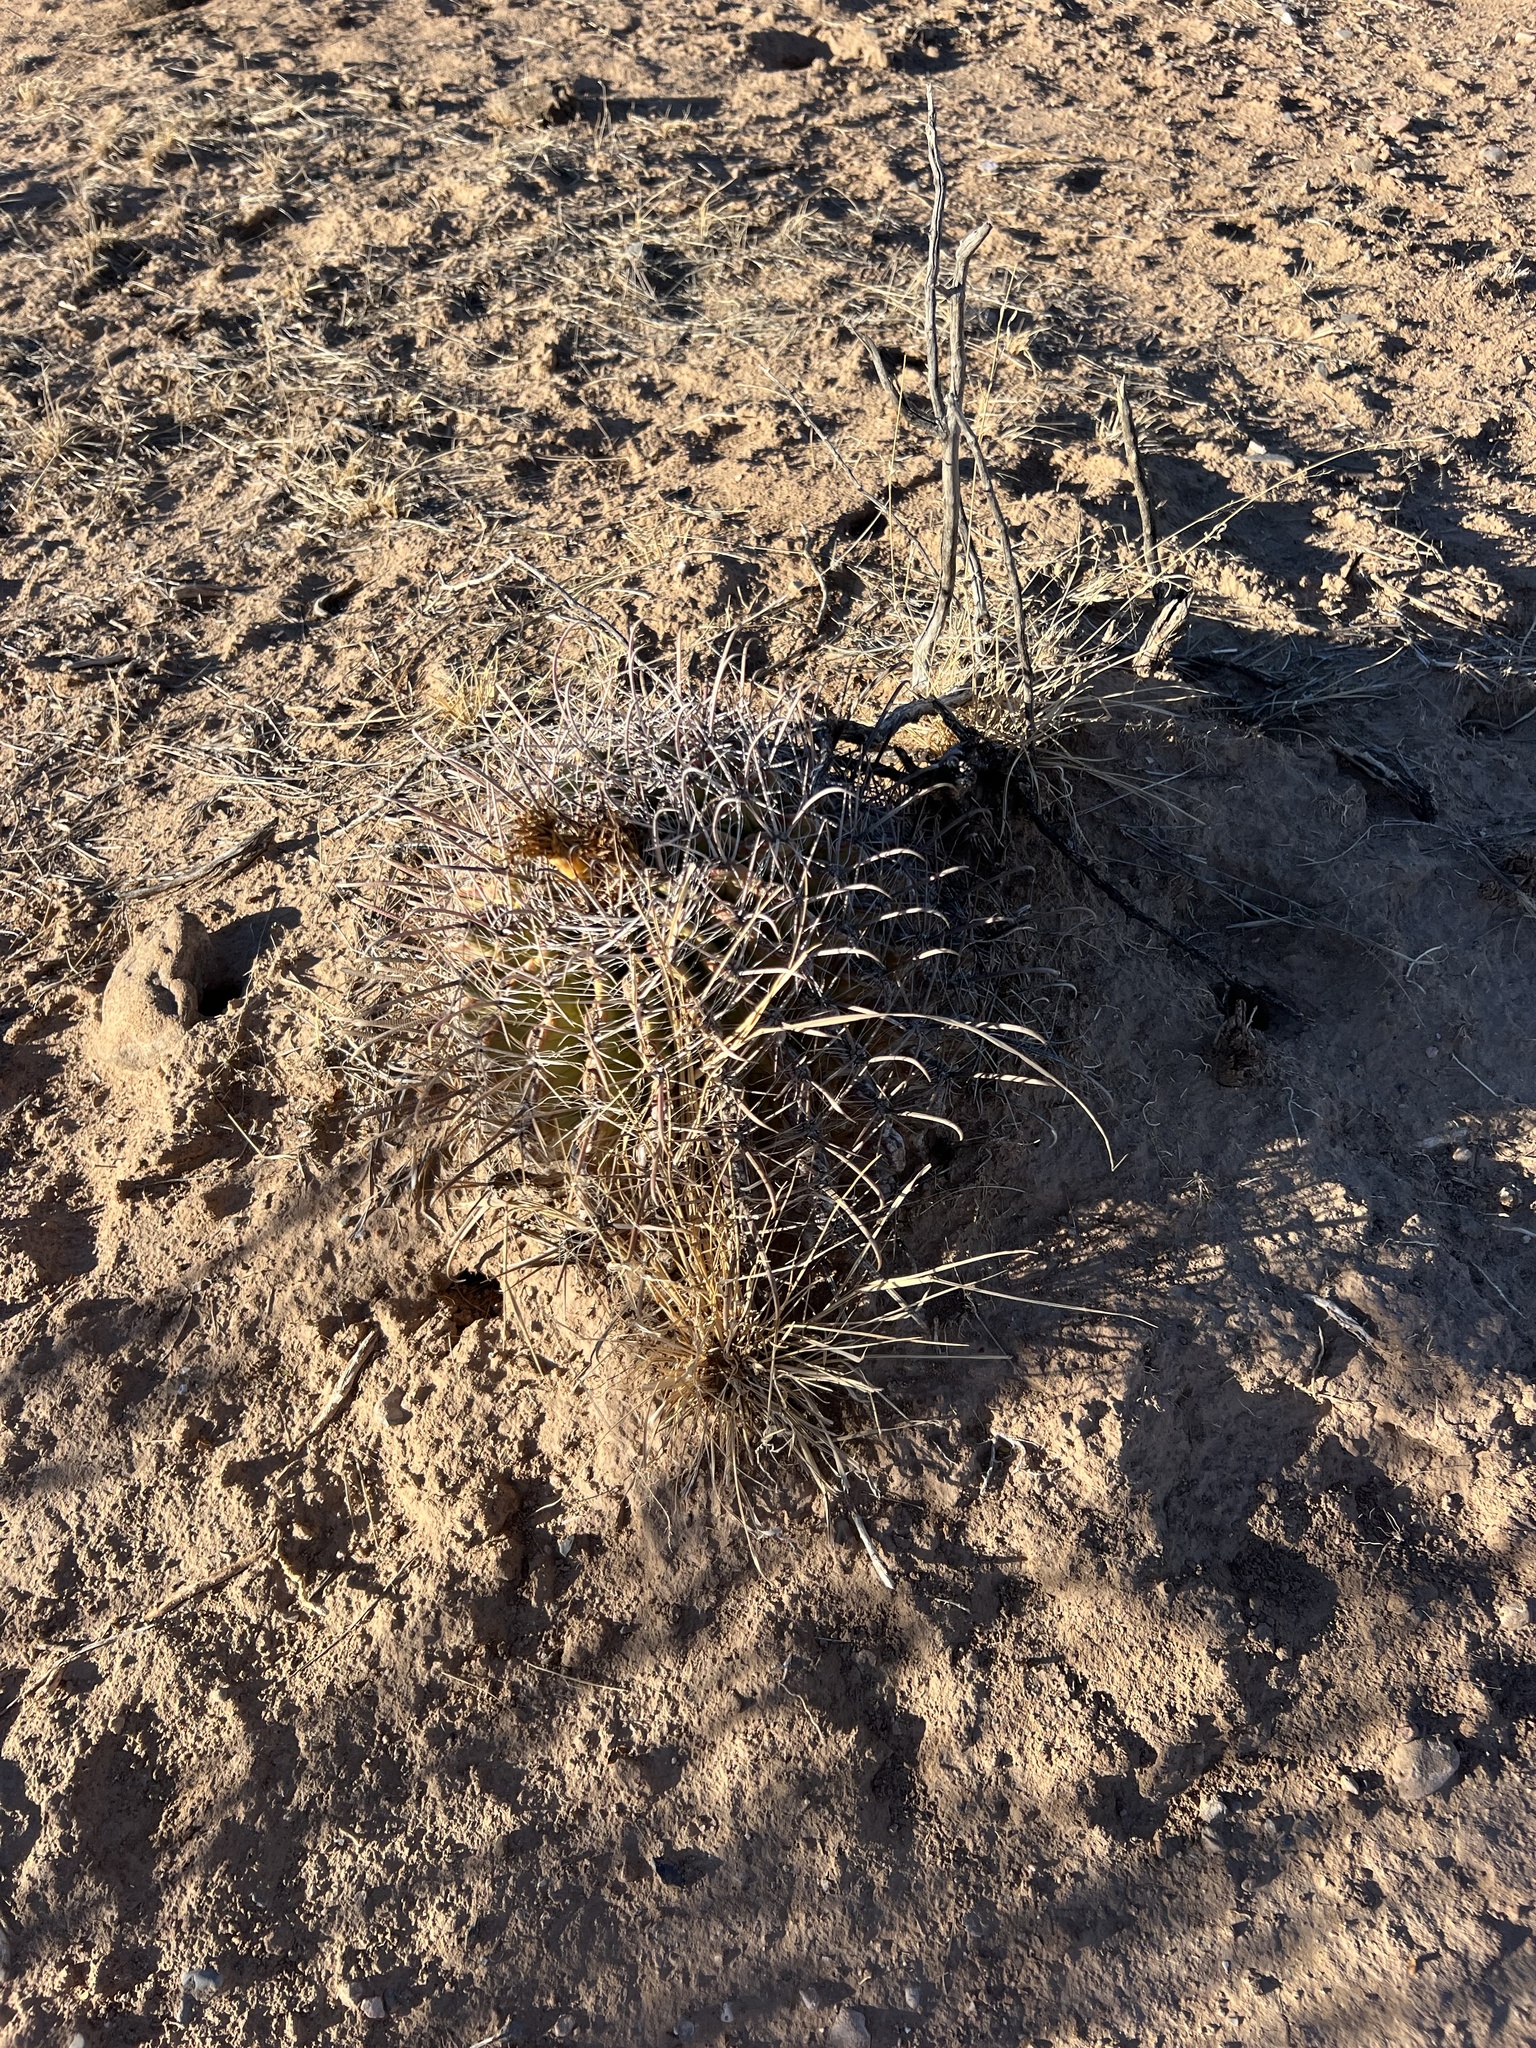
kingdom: Plantae
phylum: Tracheophyta
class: Magnoliopsida
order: Caryophyllales
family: Cactaceae
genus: Ferocactus
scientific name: Ferocactus wislizeni
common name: Candy barrel cactus
